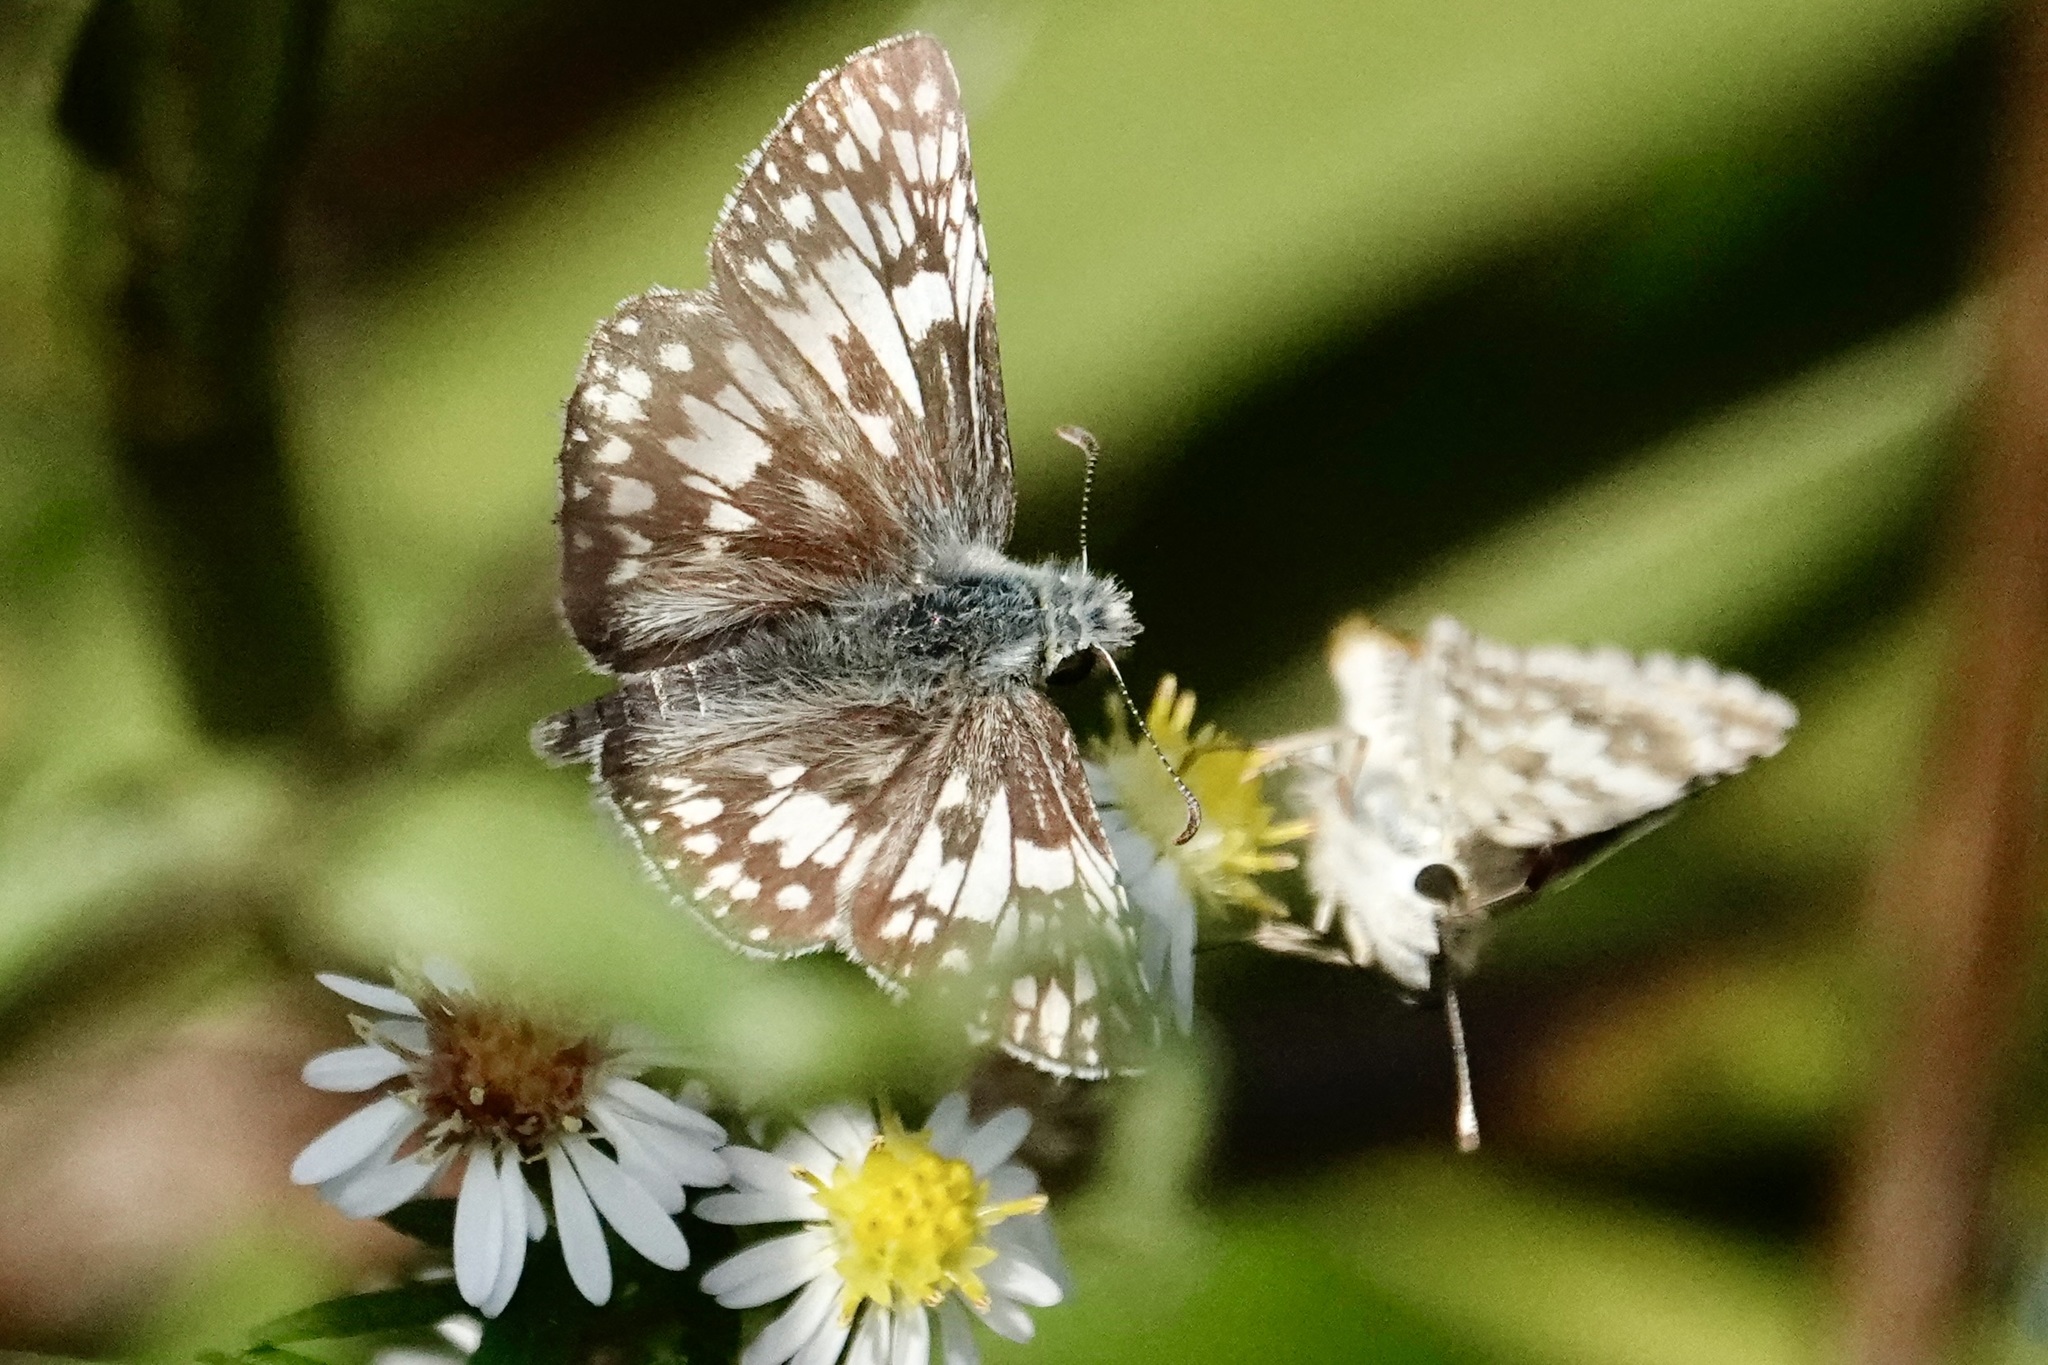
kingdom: Animalia
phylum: Arthropoda
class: Insecta
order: Lepidoptera
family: Hesperiidae
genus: Burnsius
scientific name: Burnsius communis
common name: Common checkered-skipper
